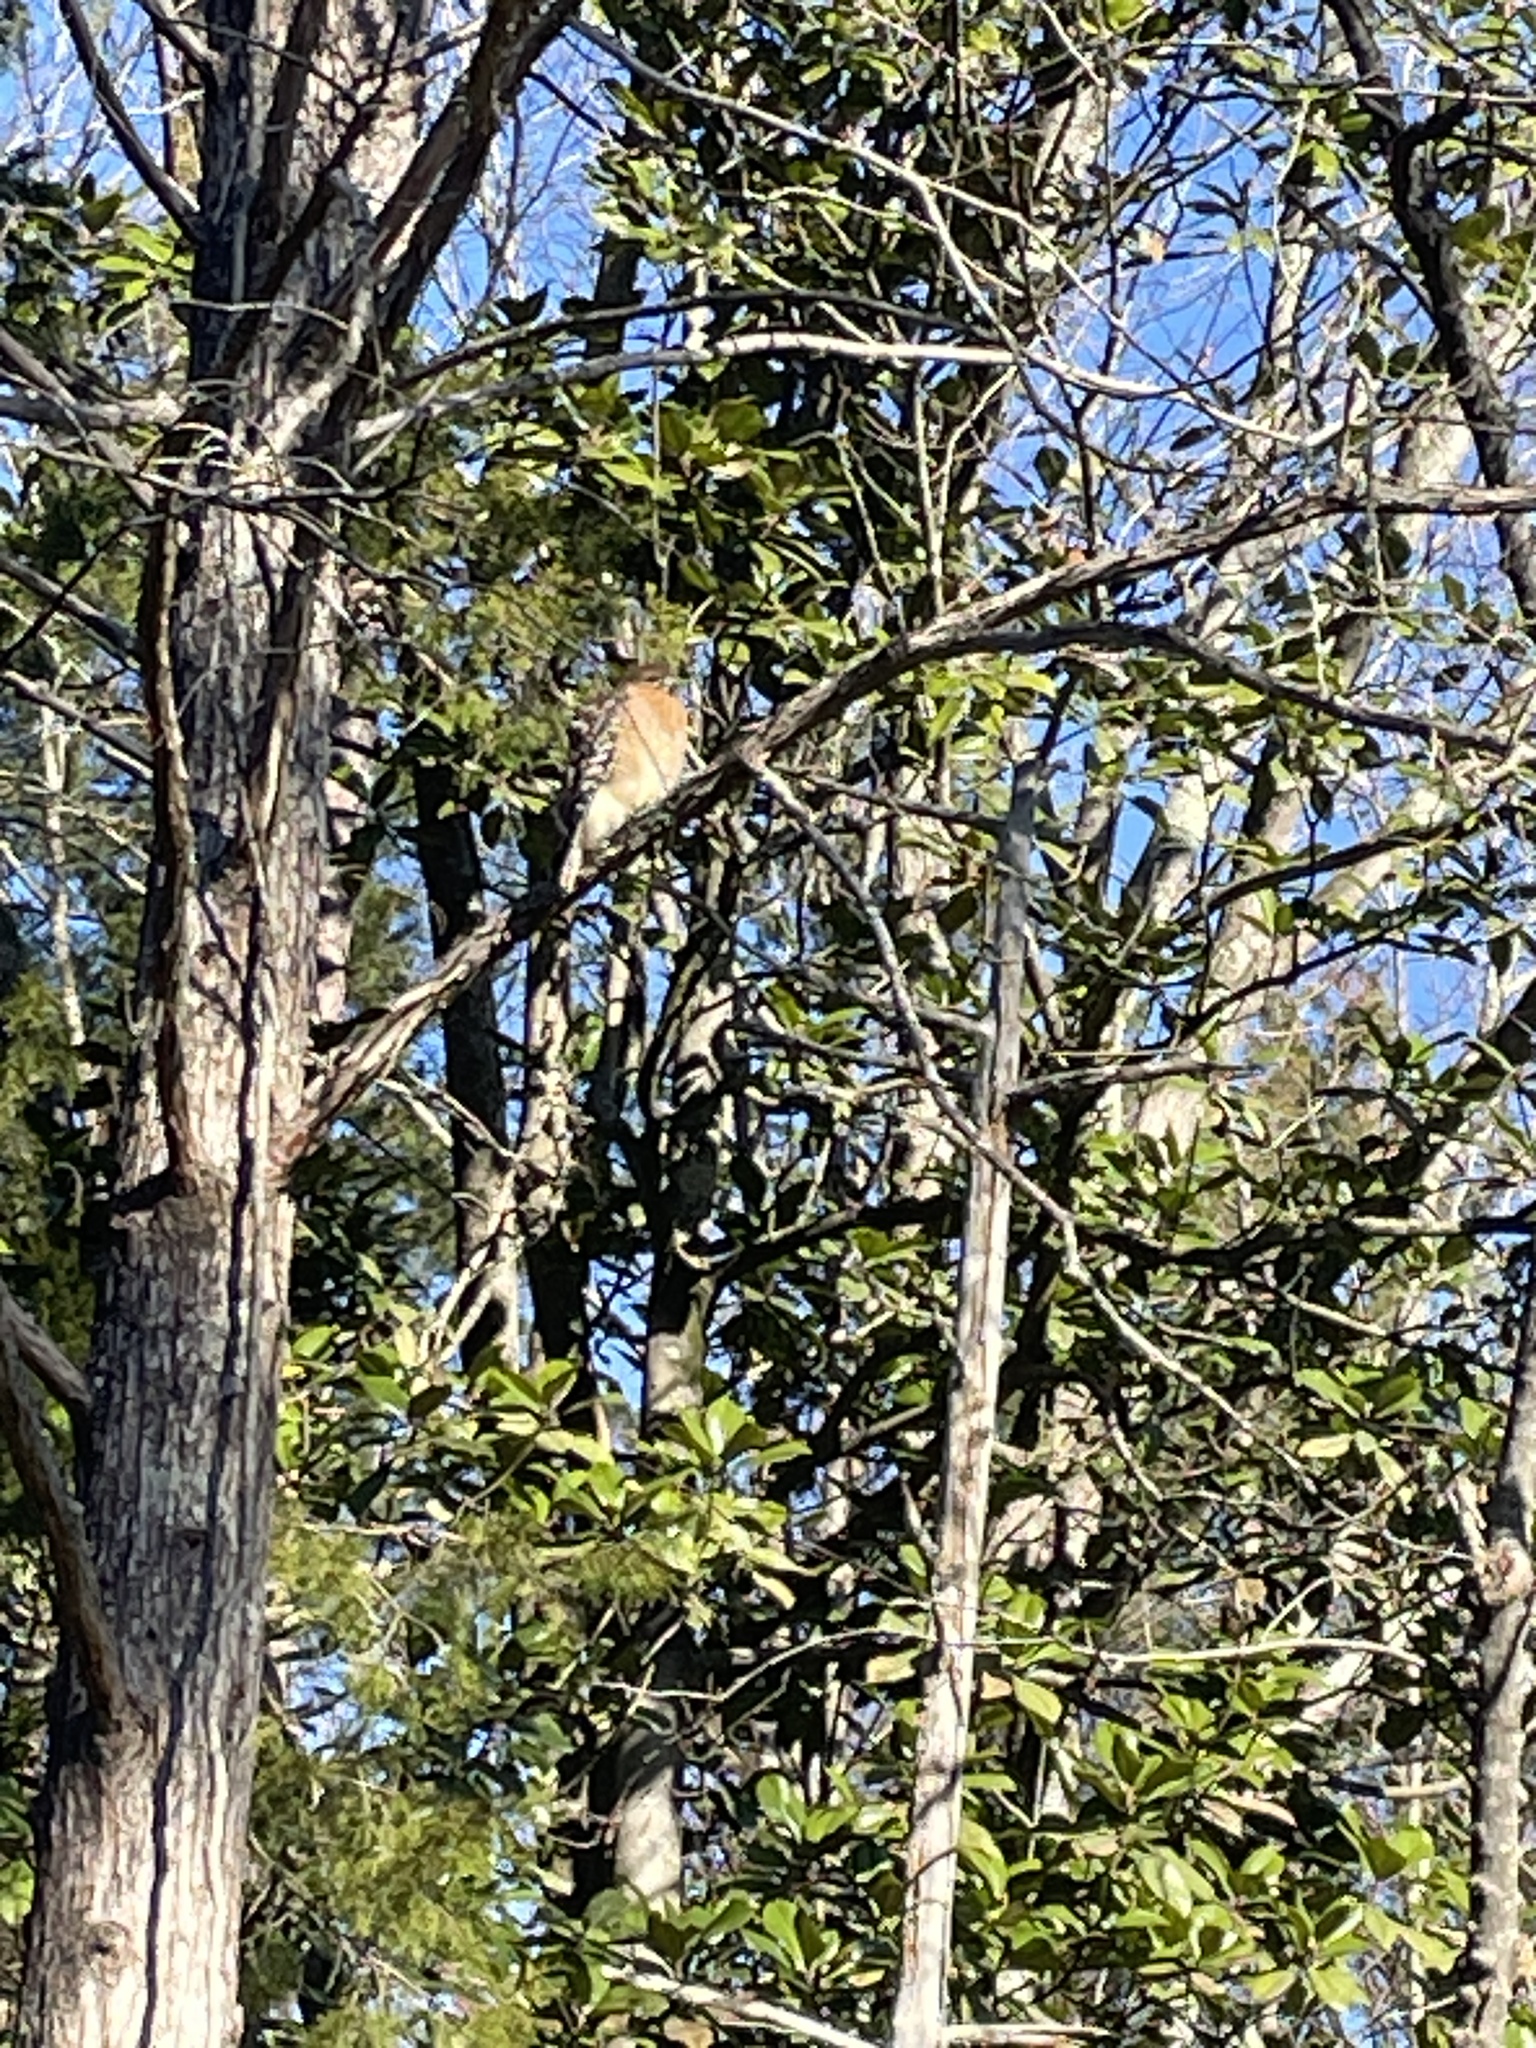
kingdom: Animalia
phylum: Chordata
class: Aves
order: Accipitriformes
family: Accipitridae
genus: Buteo
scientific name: Buteo lineatus
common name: Red-shouldered hawk
